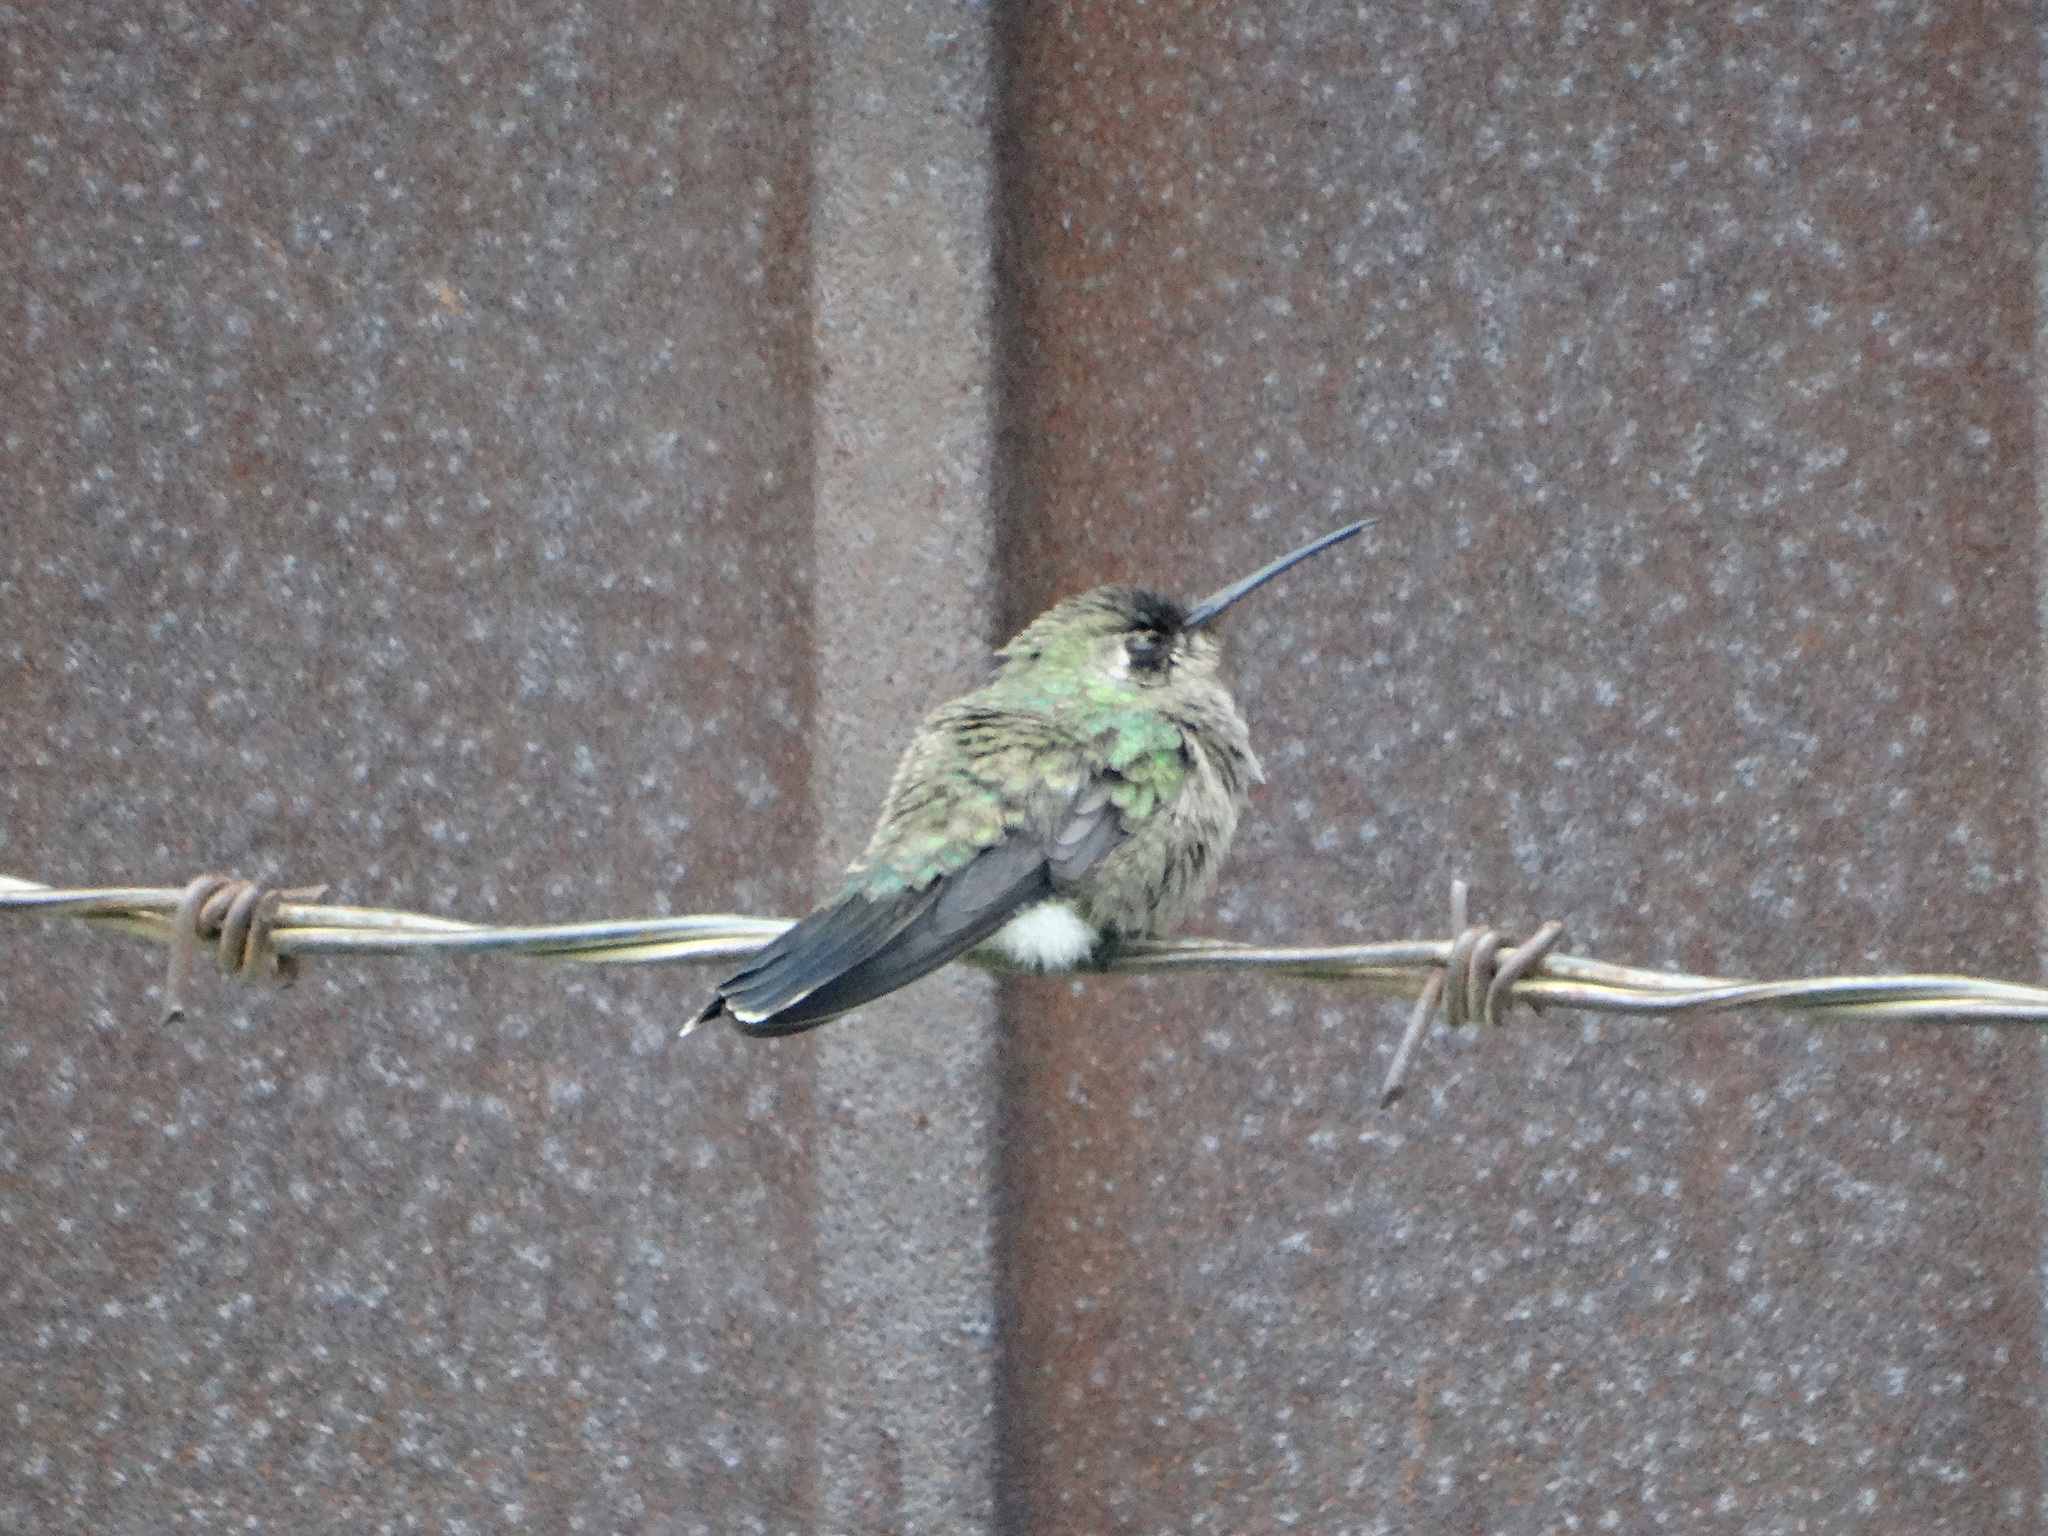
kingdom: Animalia
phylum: Chordata
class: Aves
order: Apodiformes
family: Trochilidae
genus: Cynanthus
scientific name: Cynanthus latirostris
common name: Broad-billed hummingbird
